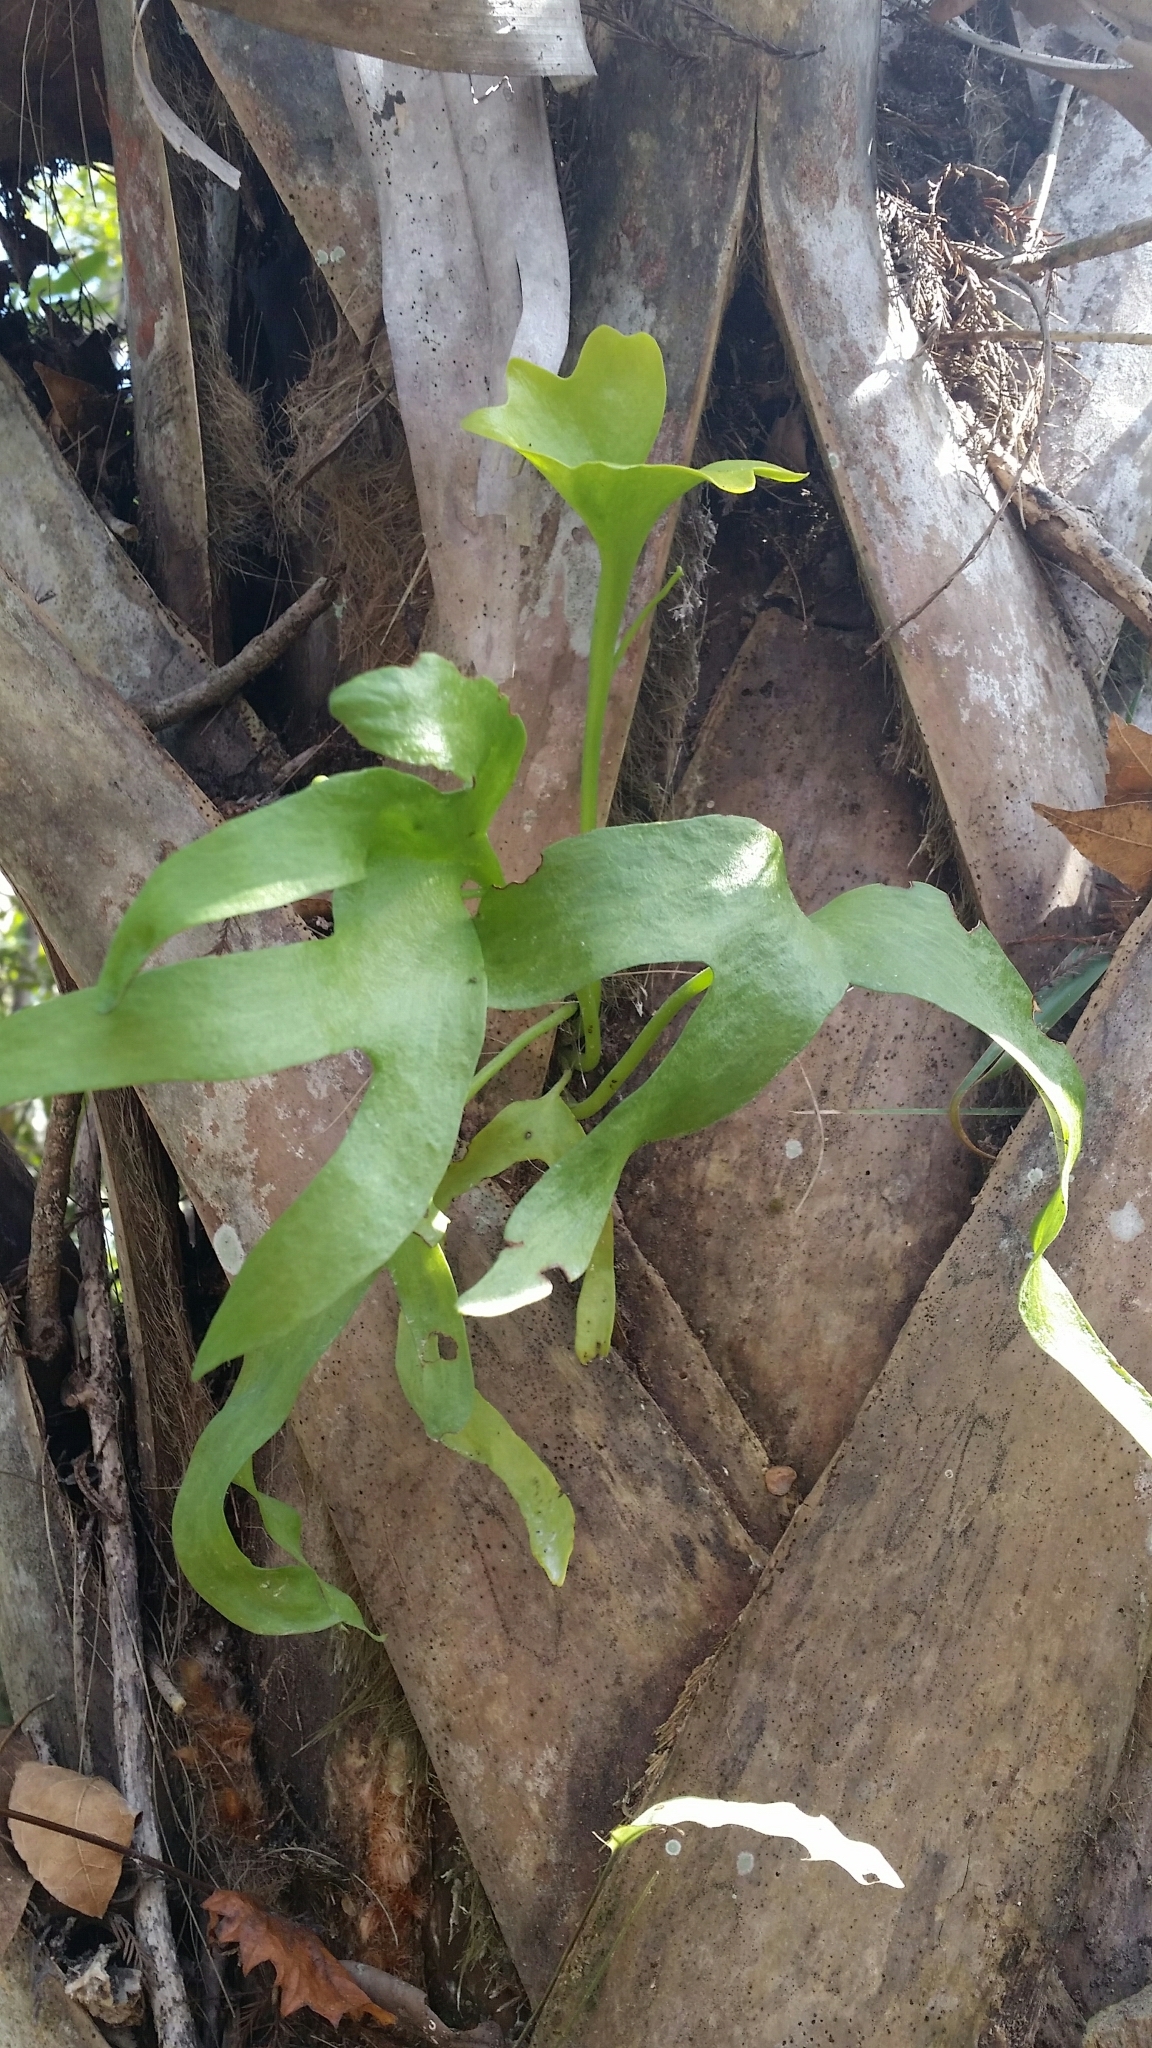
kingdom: Plantae
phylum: Tracheophyta
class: Polypodiopsida
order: Ophioglossales
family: Ophioglossaceae
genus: Cheiroglossa
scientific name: Cheiroglossa palmata
